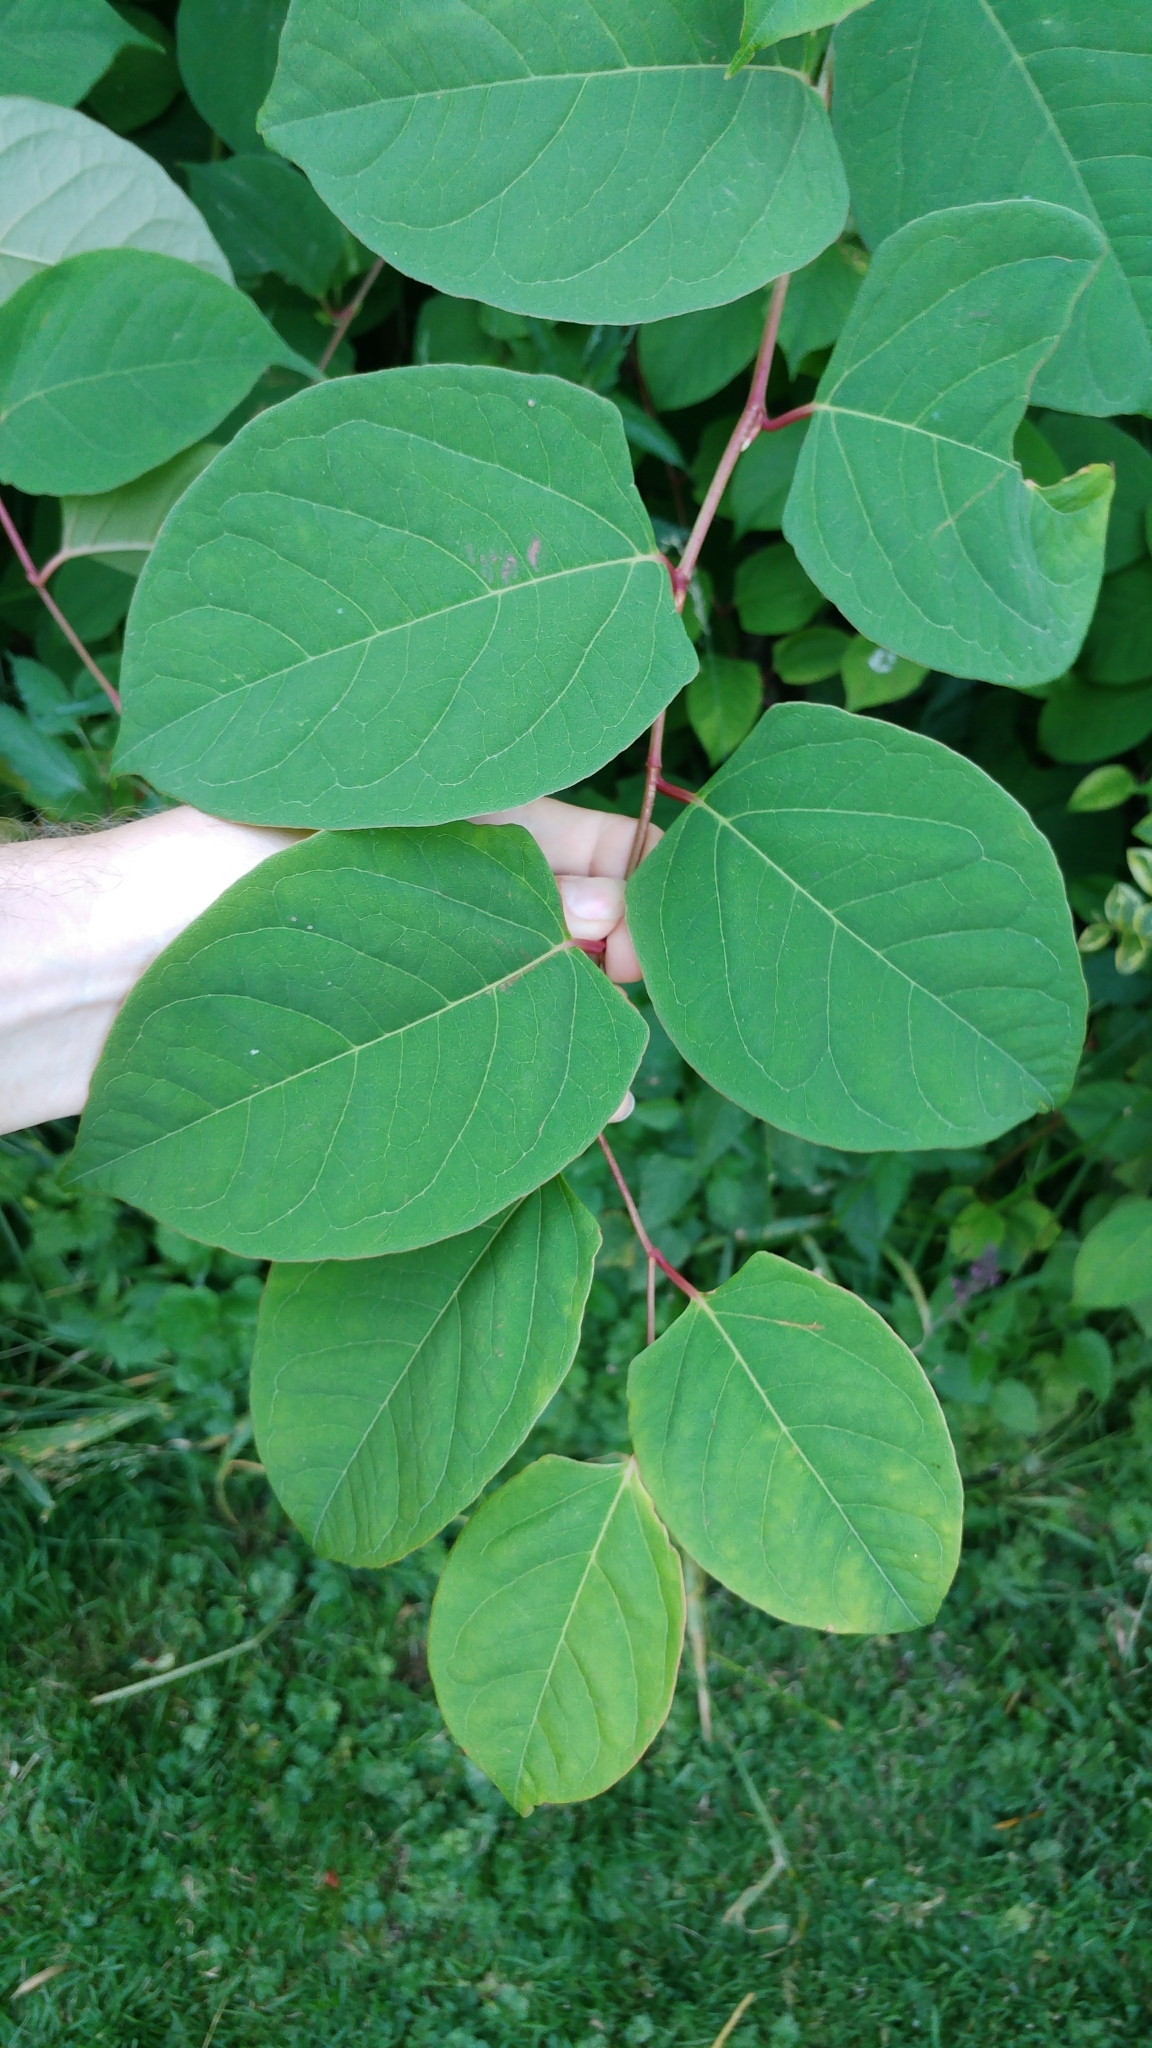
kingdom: Plantae
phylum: Tracheophyta
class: Magnoliopsida
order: Caryophyllales
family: Polygonaceae
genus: Reynoutria
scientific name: Reynoutria japonica
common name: Japanese knotweed
